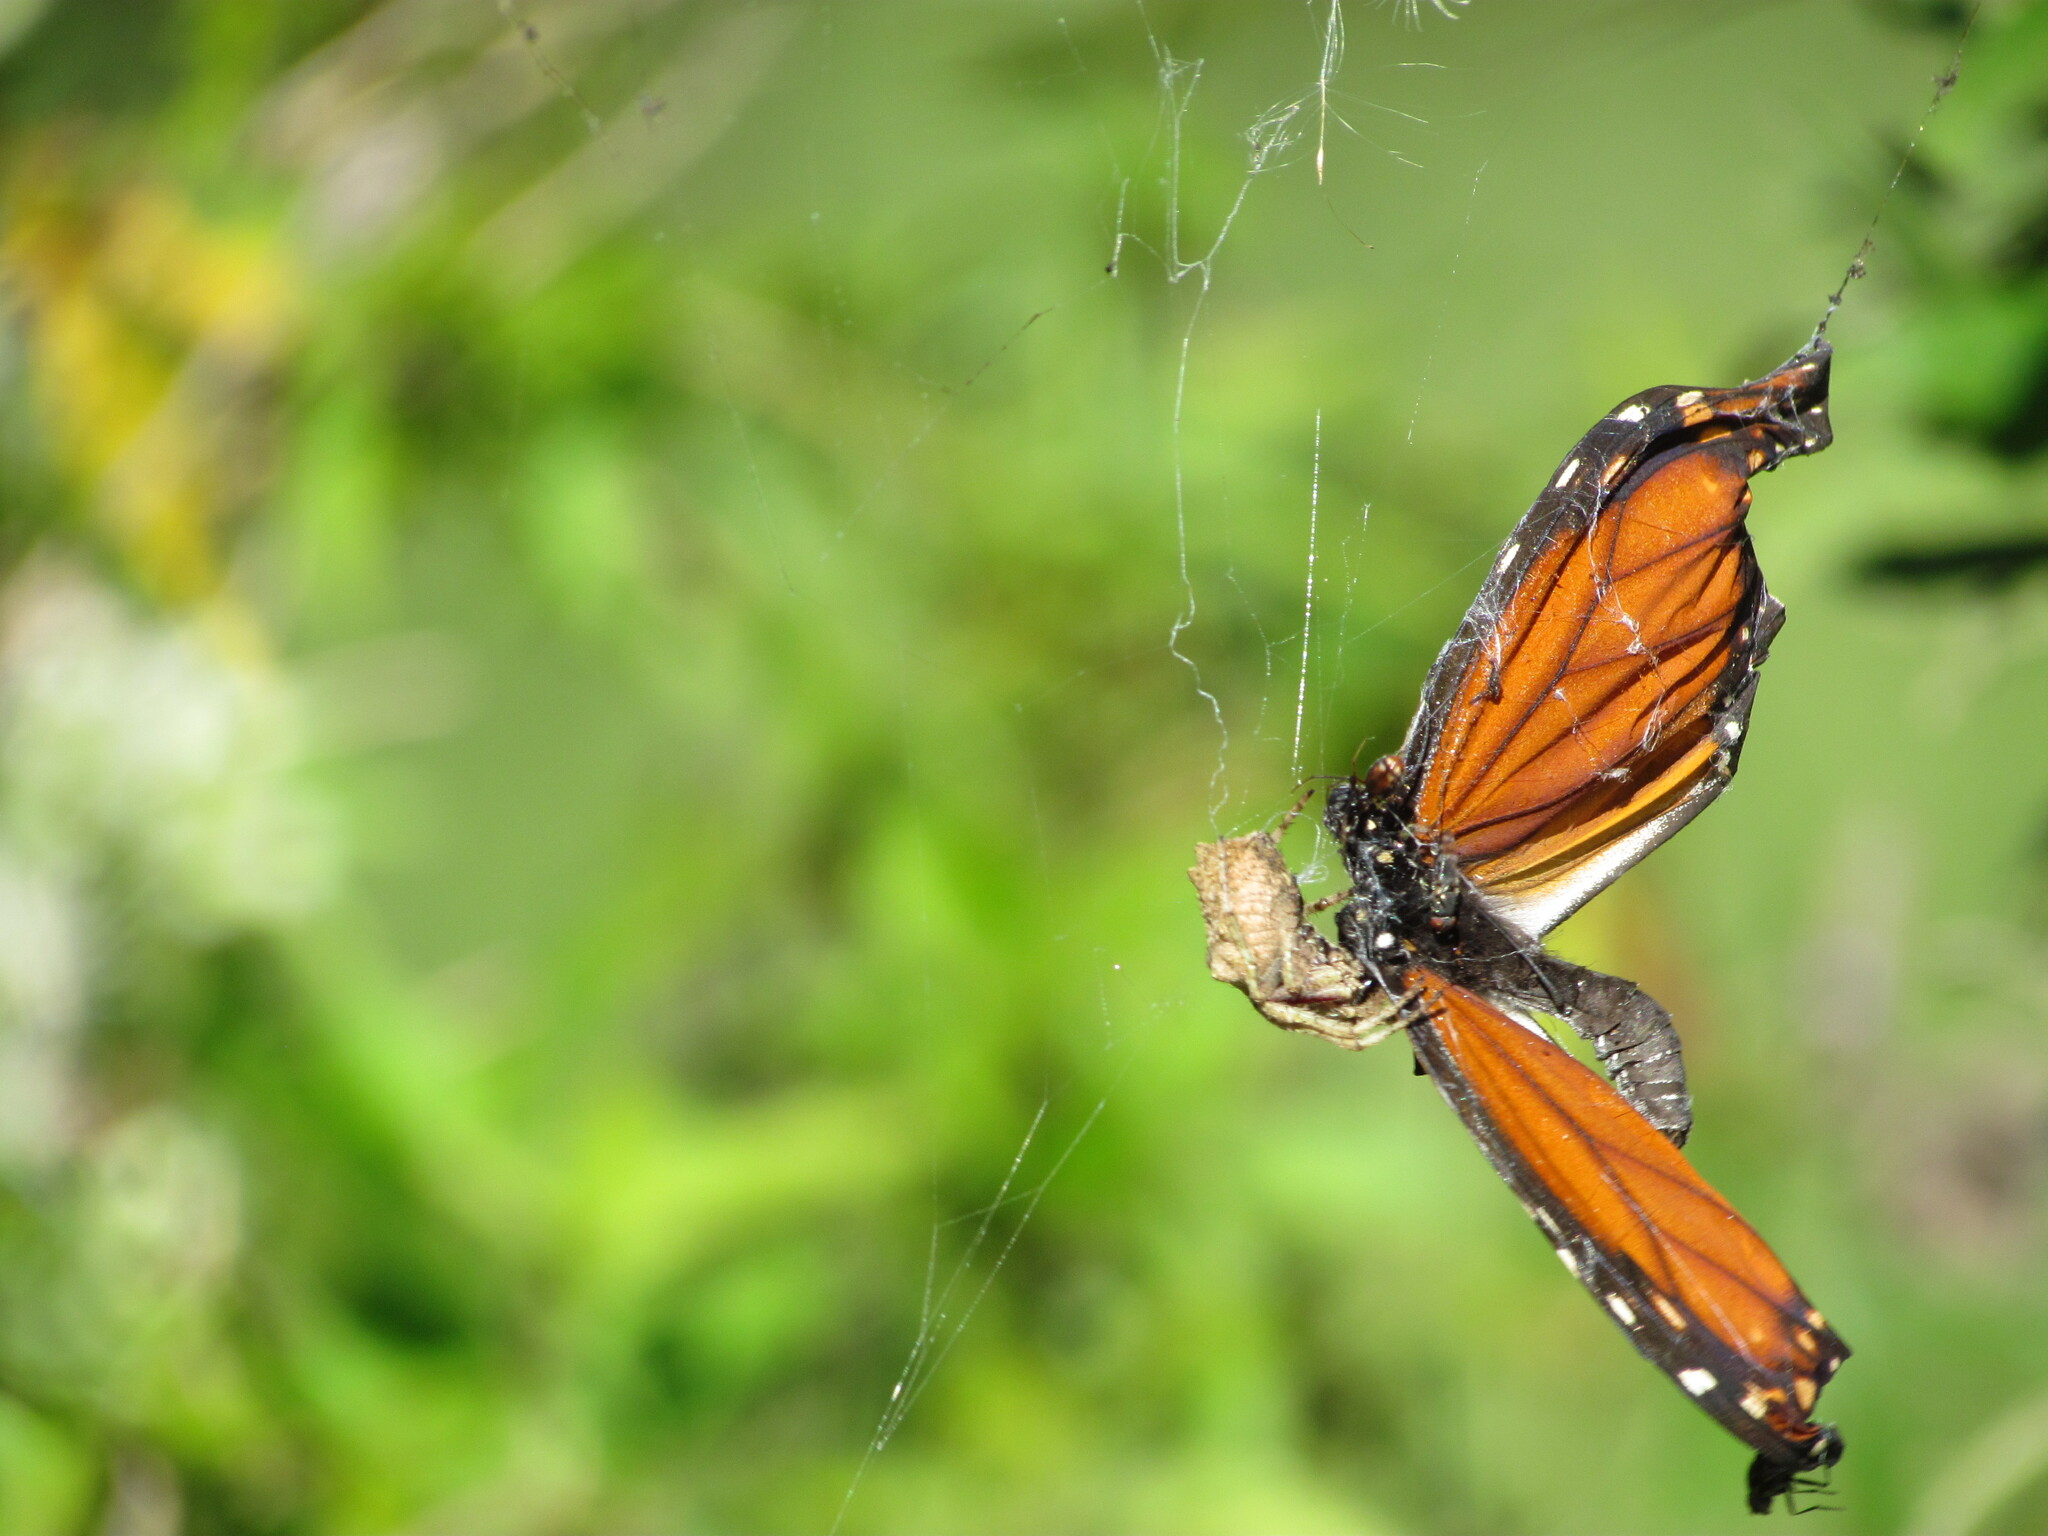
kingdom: Animalia
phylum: Arthropoda
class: Arachnida
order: Araneae
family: Araneidae
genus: Parawixia
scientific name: Parawixia audax
